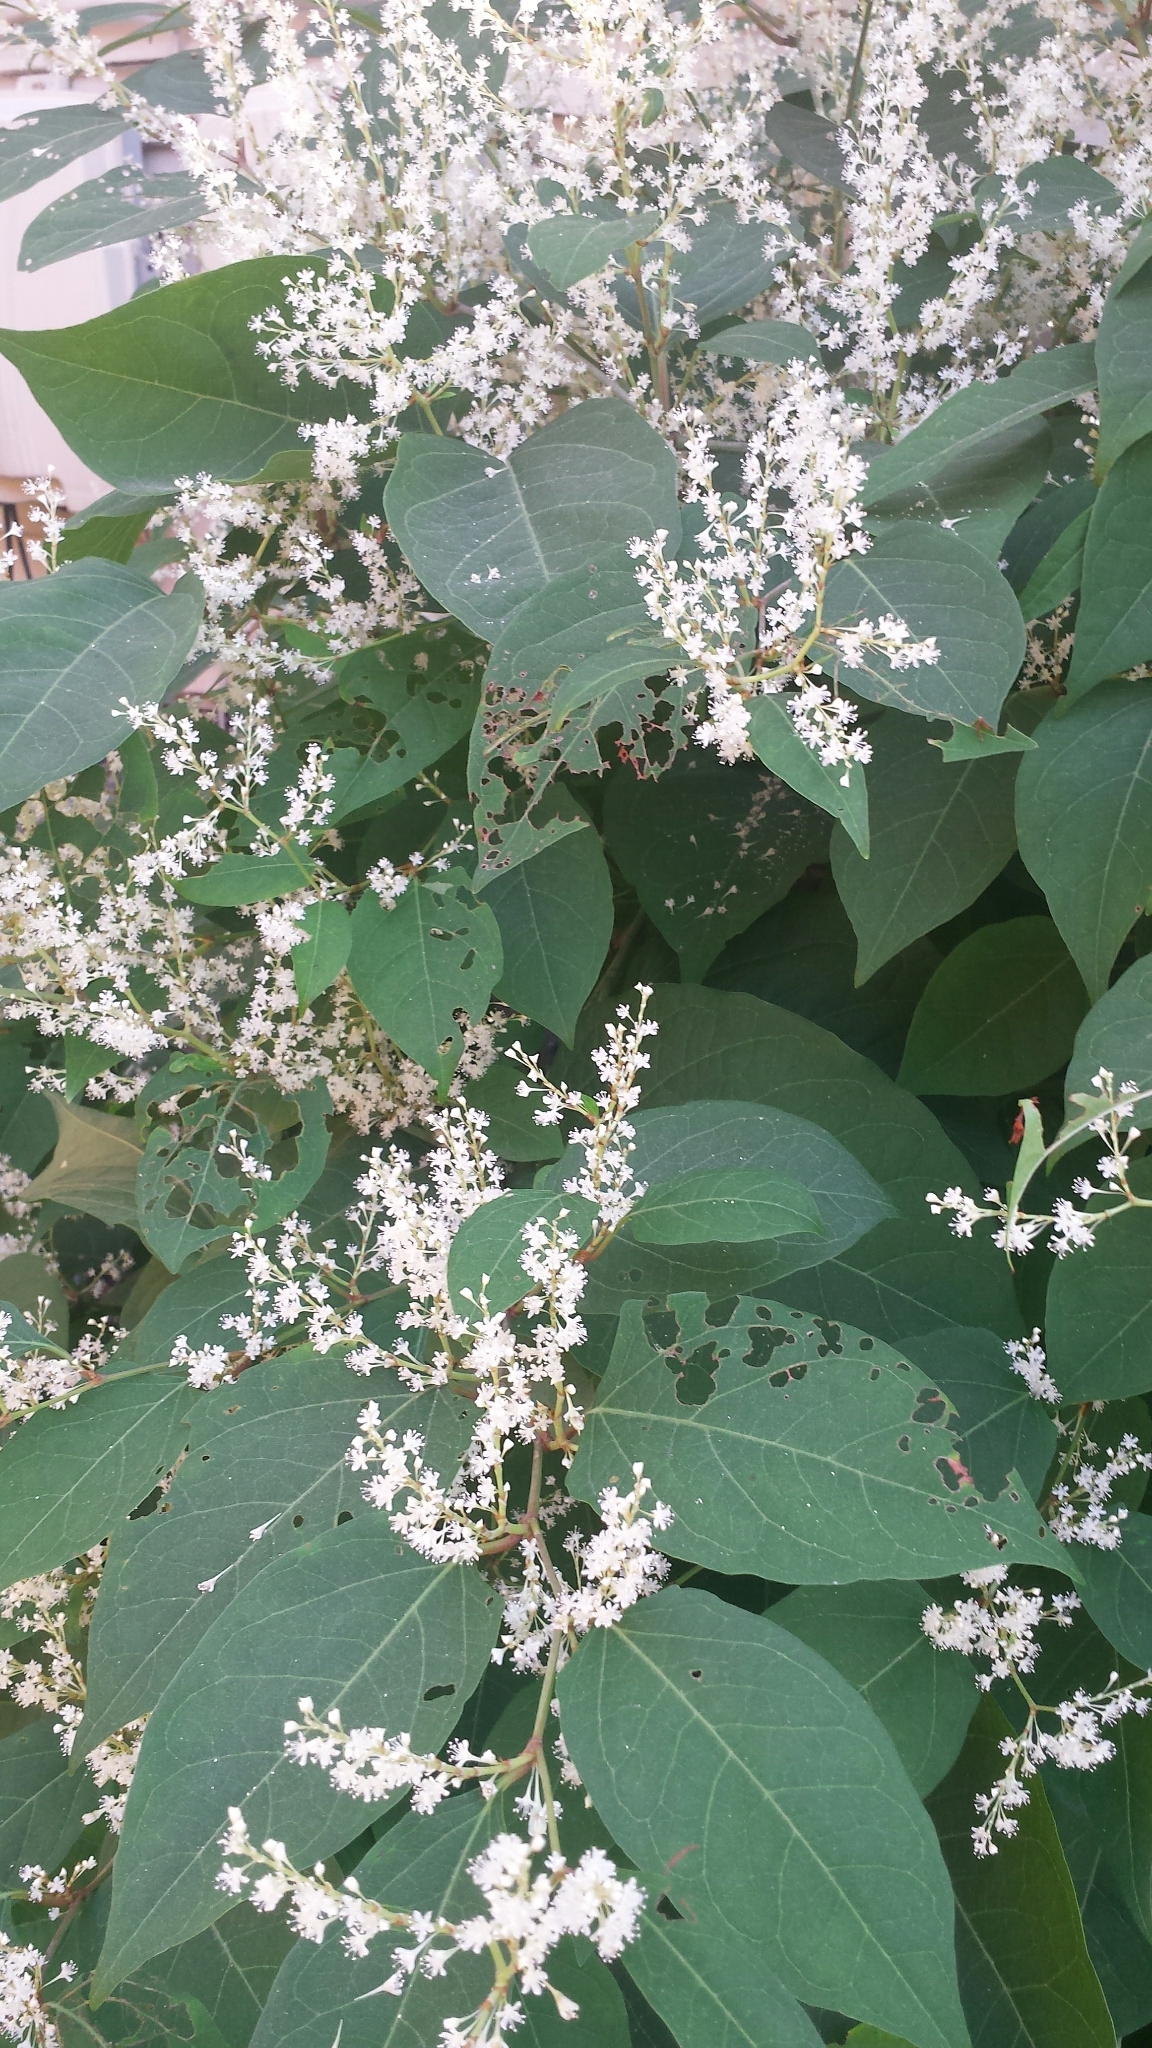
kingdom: Plantae
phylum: Tracheophyta
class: Magnoliopsida
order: Caryophyllales
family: Polygonaceae
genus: Reynoutria
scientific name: Reynoutria japonica
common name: Japanese knotweed
